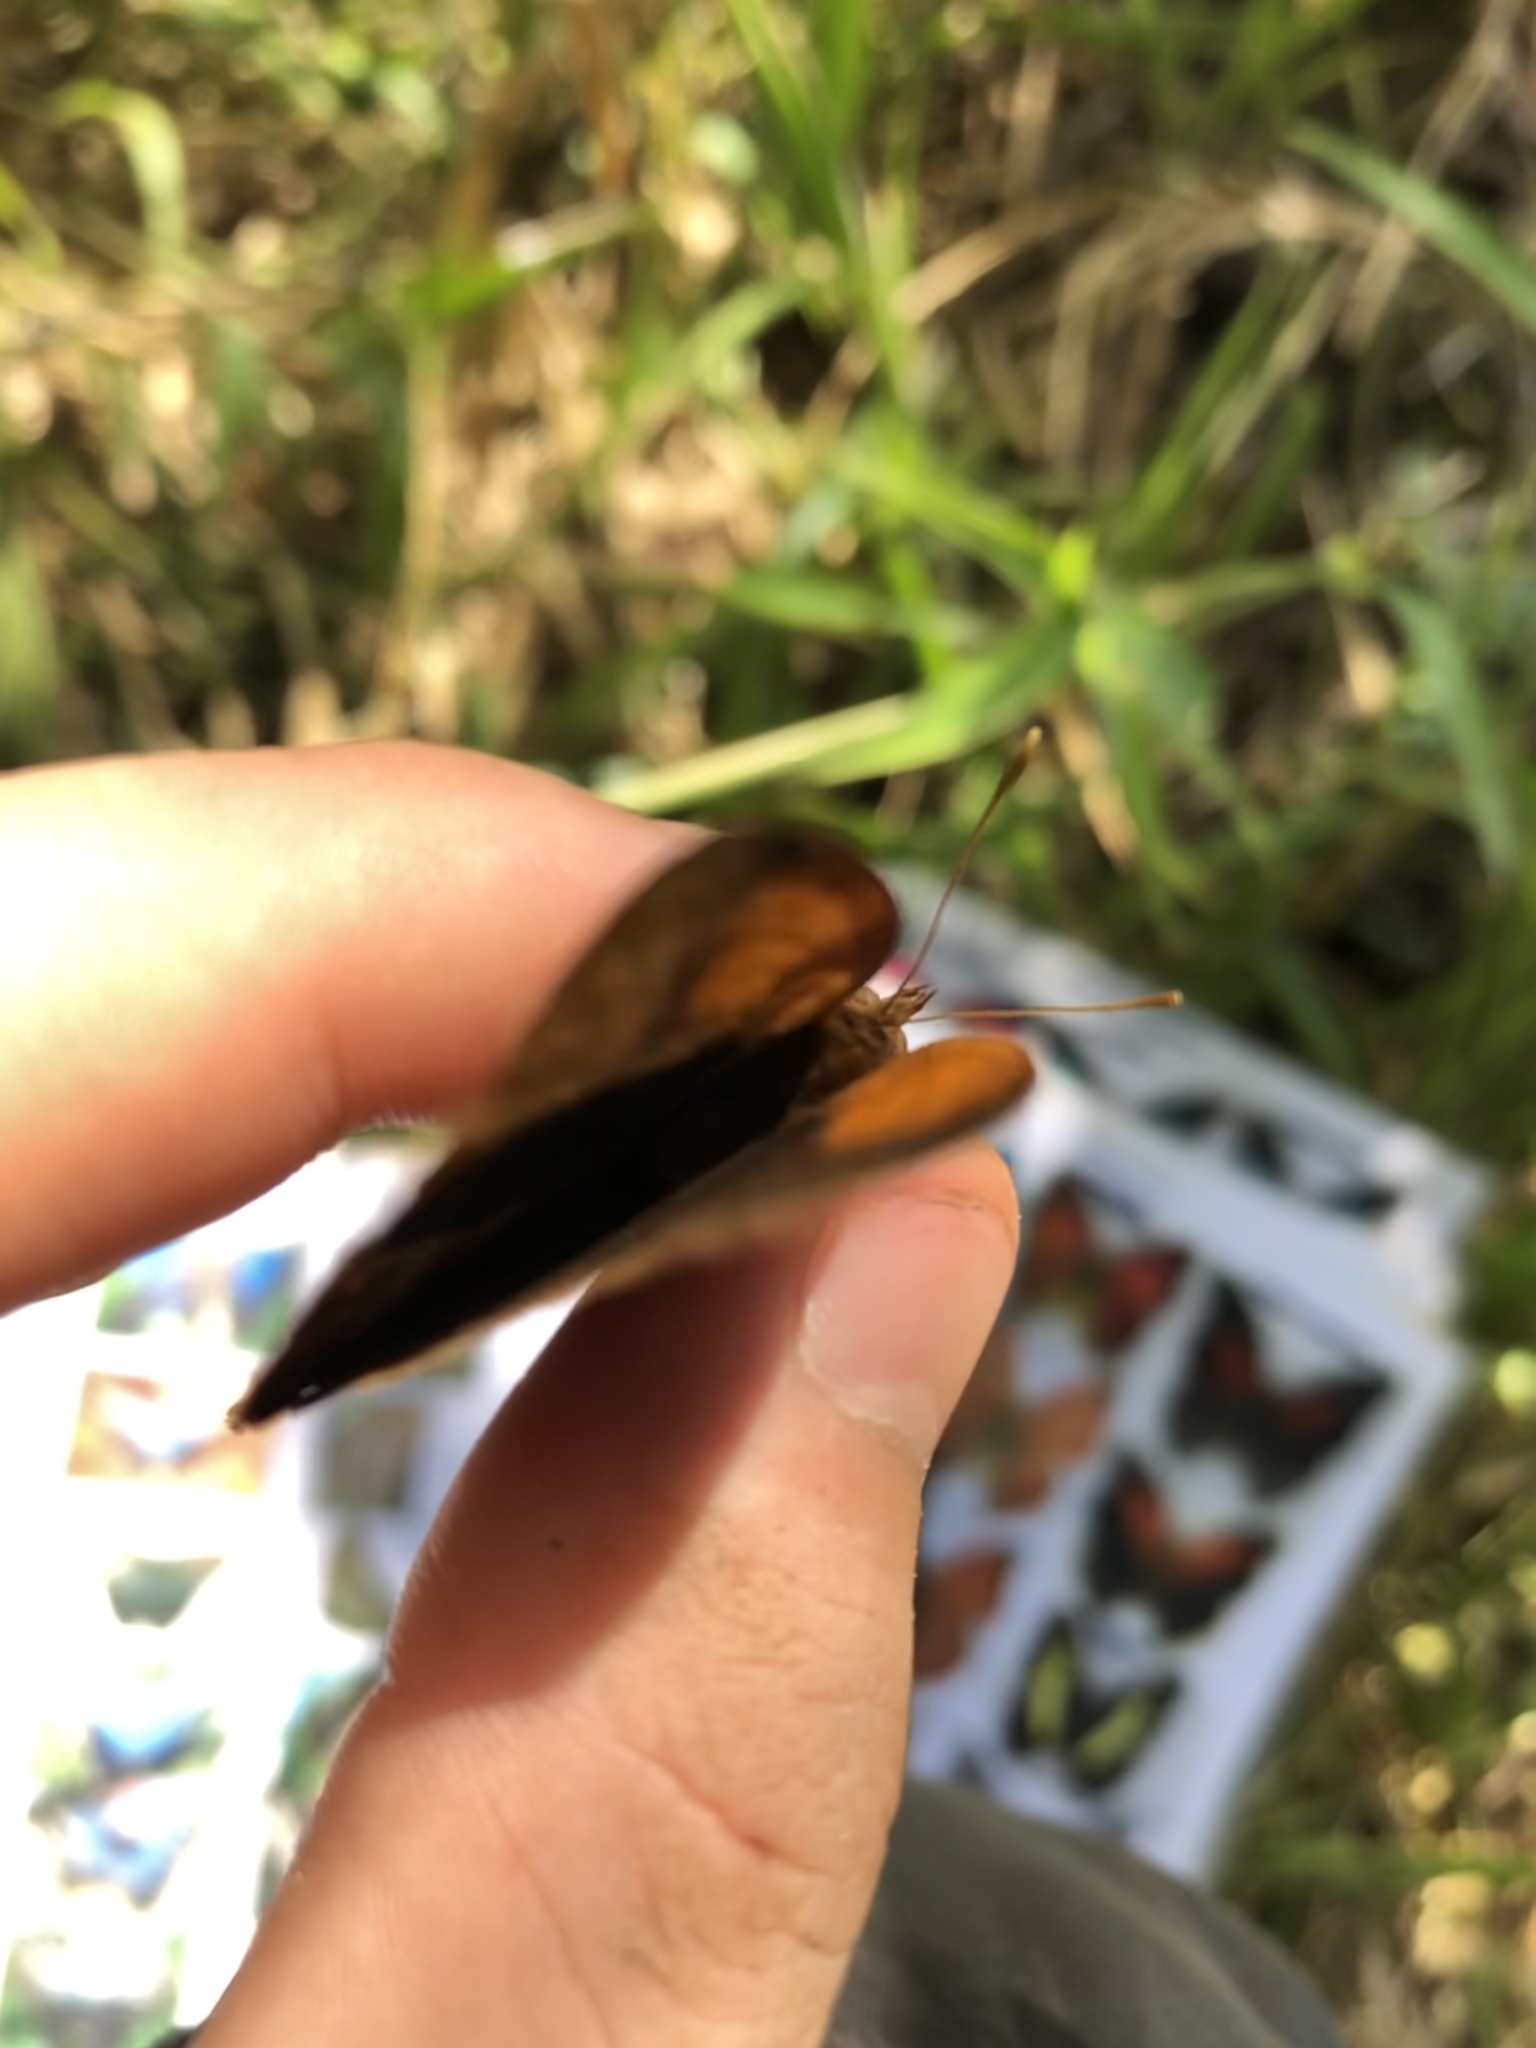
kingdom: Animalia
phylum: Arthropoda
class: Insecta
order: Lepidoptera
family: Nymphalidae
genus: Narope
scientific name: Narope nesope
